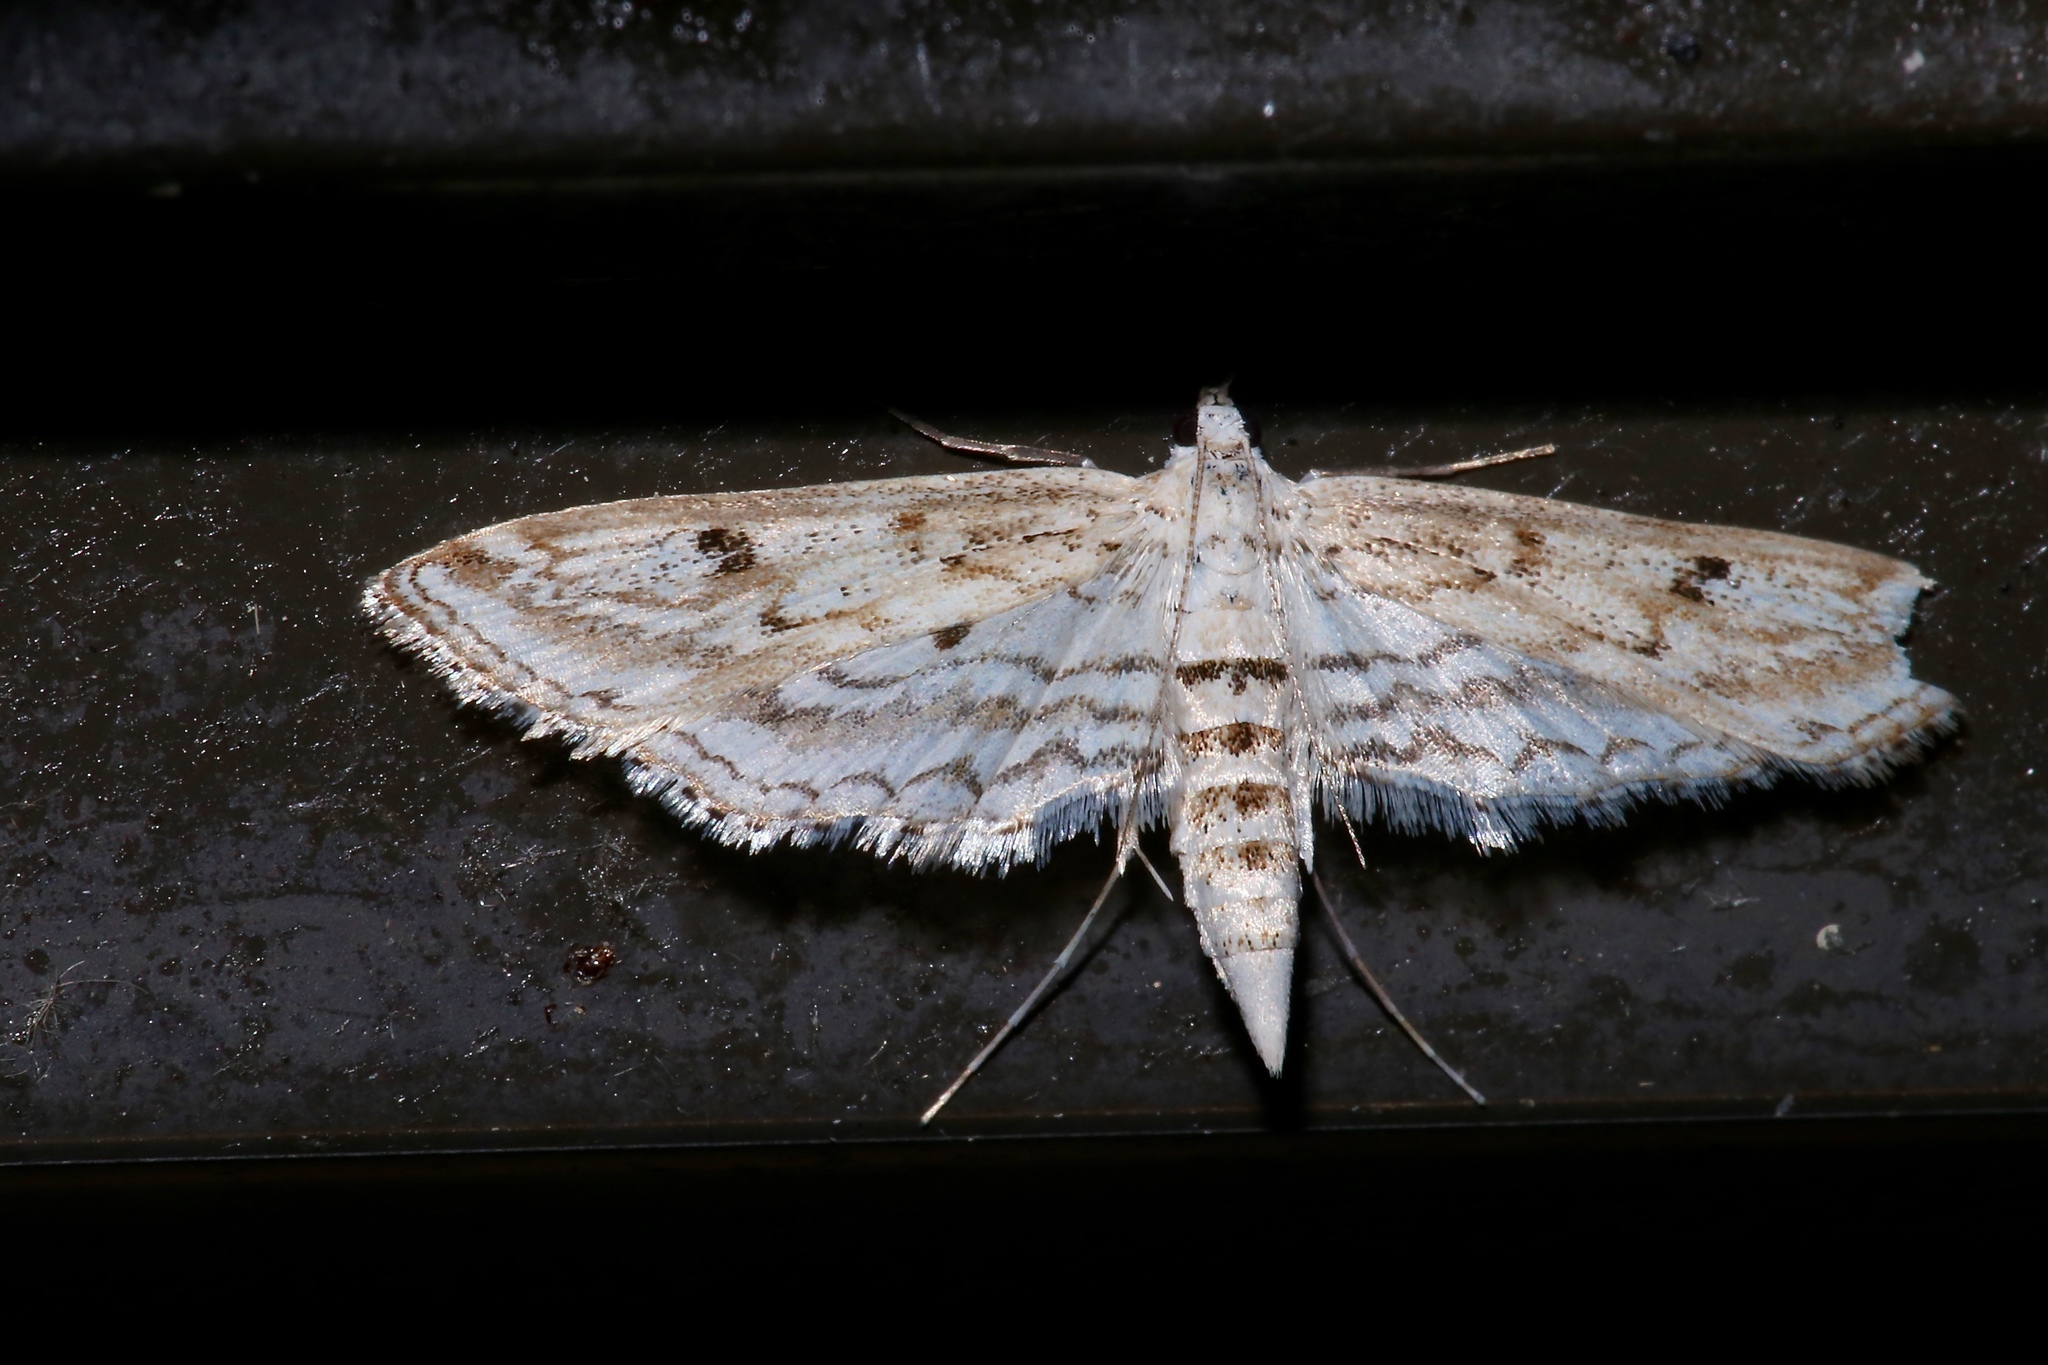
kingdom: Animalia
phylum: Arthropoda
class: Insecta
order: Lepidoptera
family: Crambidae
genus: Parapoynx
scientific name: Parapoynx allionealis
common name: Bladderwort casemaker
